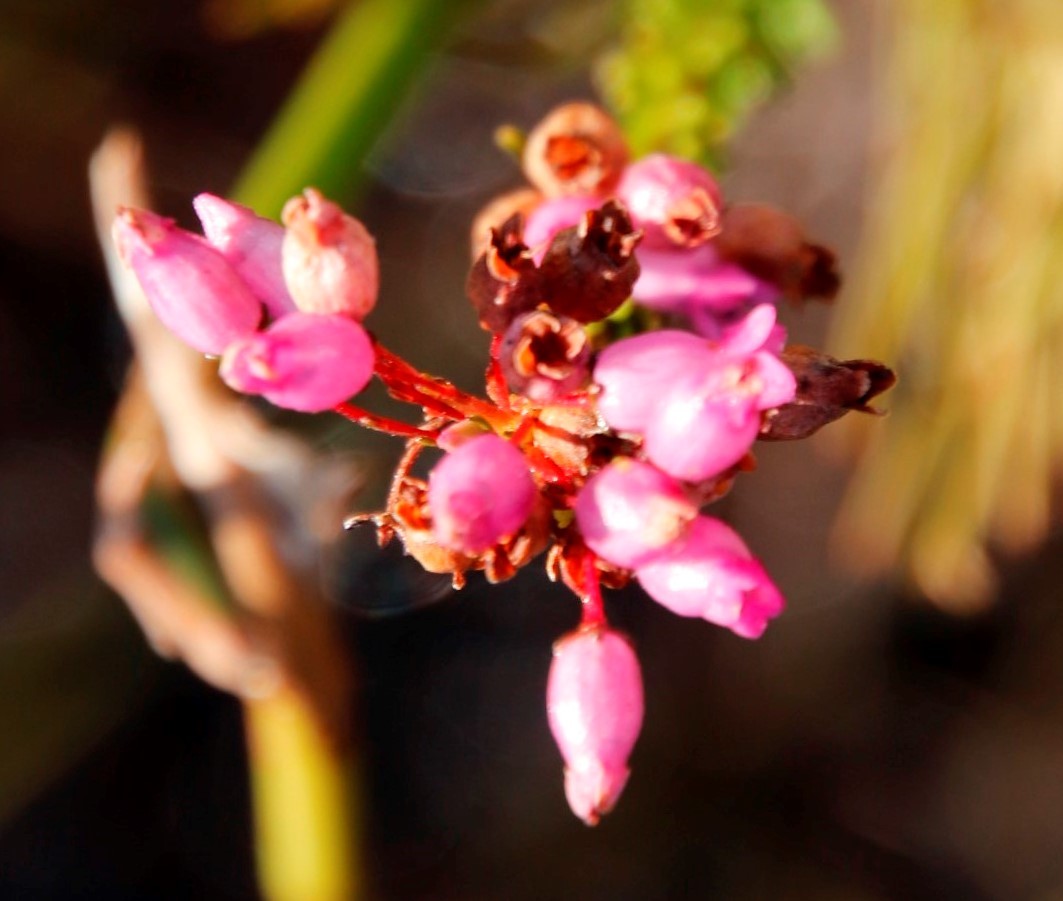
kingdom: Plantae
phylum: Tracheophyta
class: Magnoliopsida
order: Ericales
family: Ericaceae
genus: Erica
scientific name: Erica obliqua
